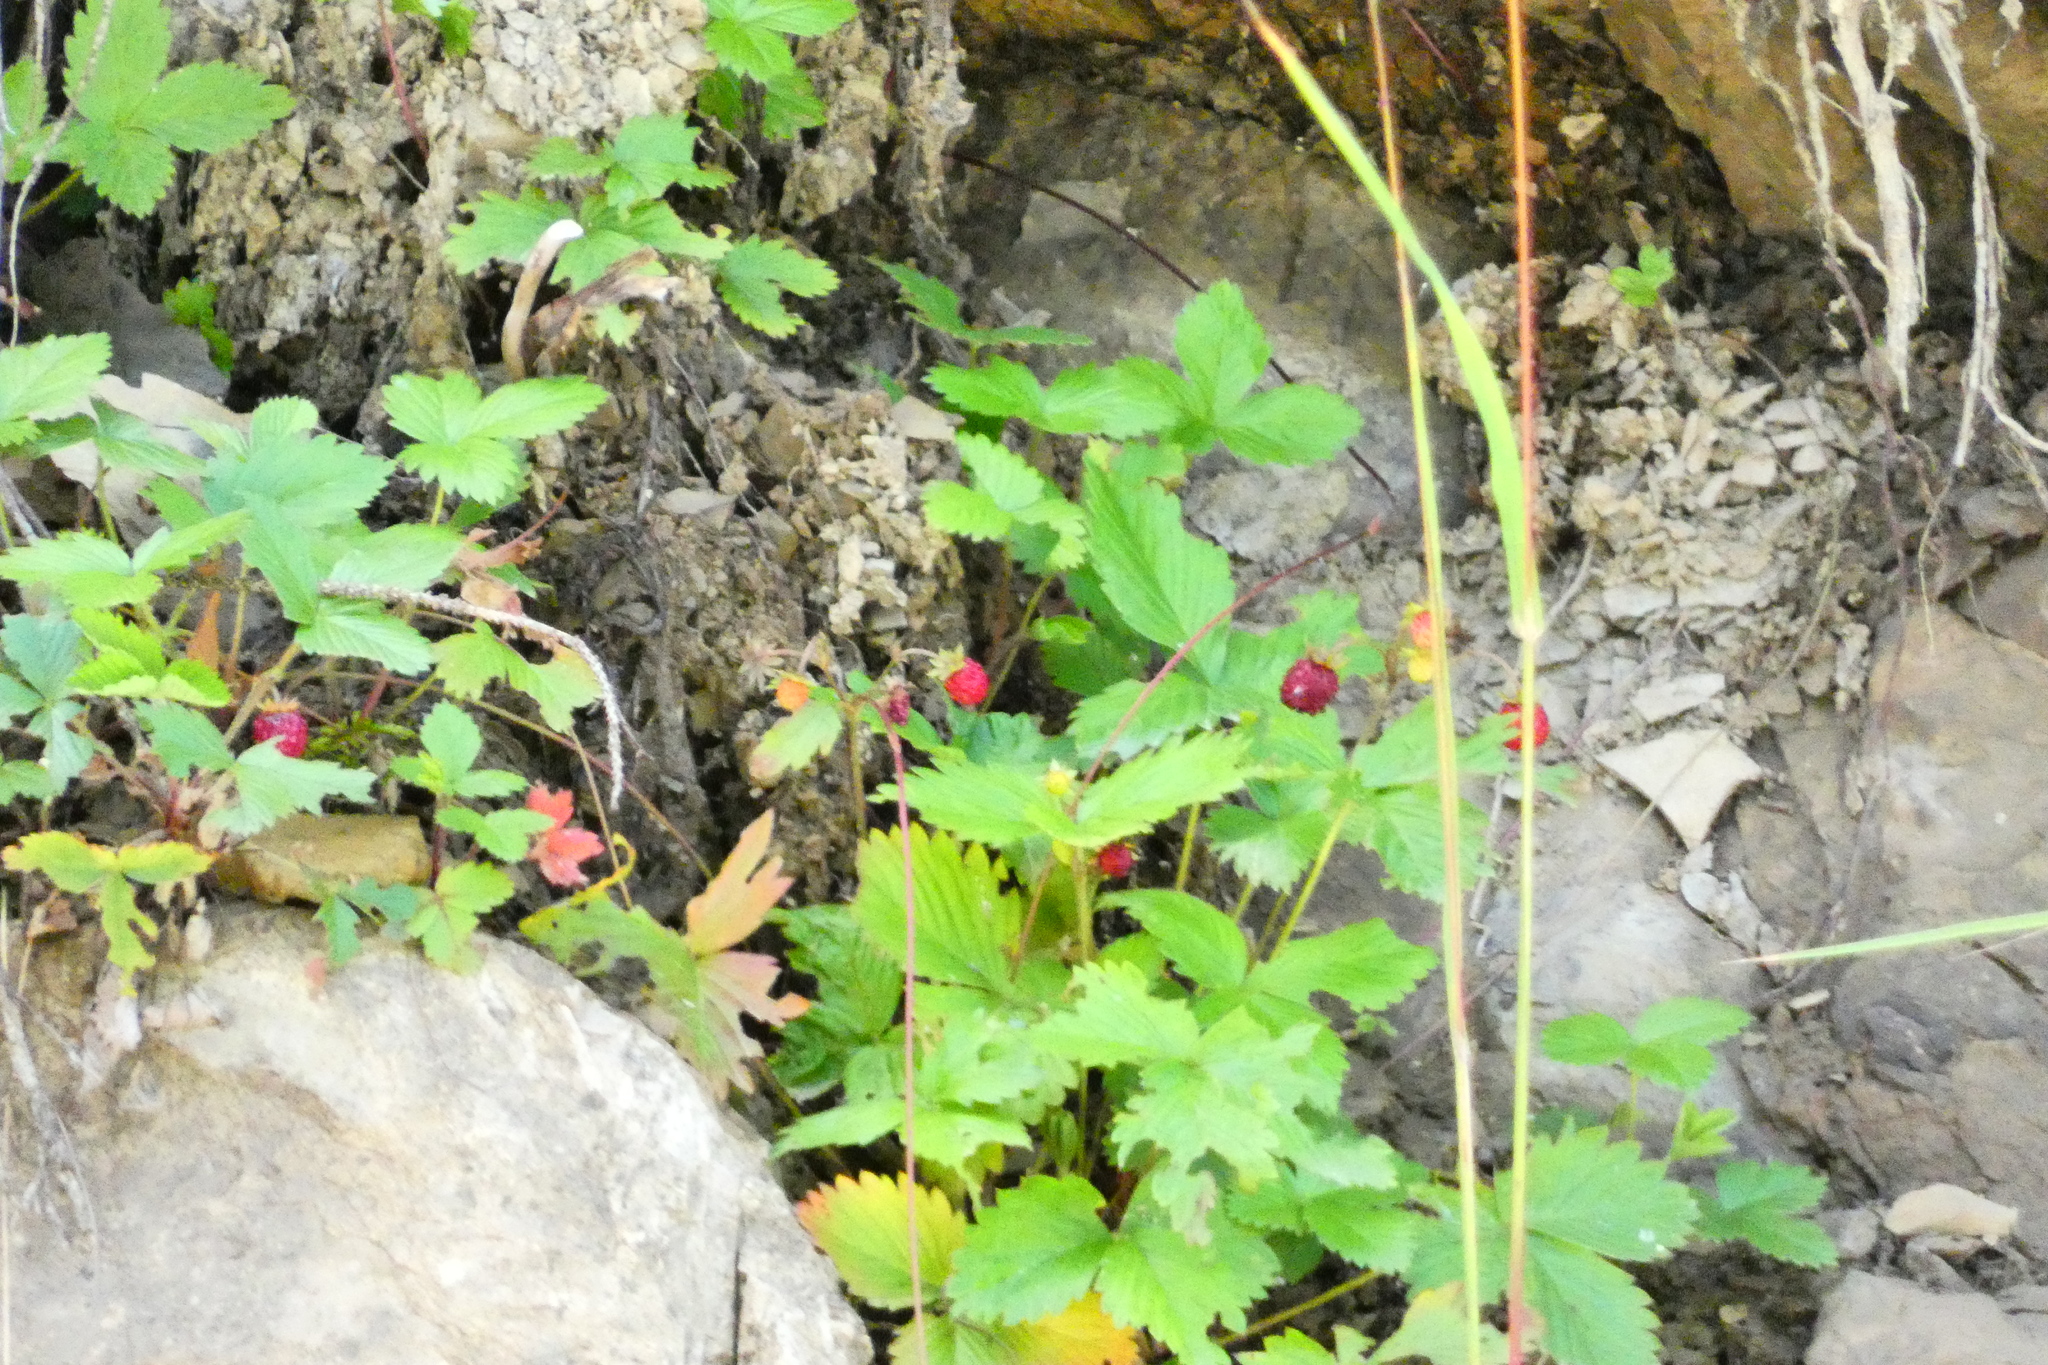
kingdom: Plantae
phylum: Tracheophyta
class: Magnoliopsida
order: Rosales
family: Rosaceae
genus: Fragaria
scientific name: Fragaria vesca
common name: Wild strawberry
